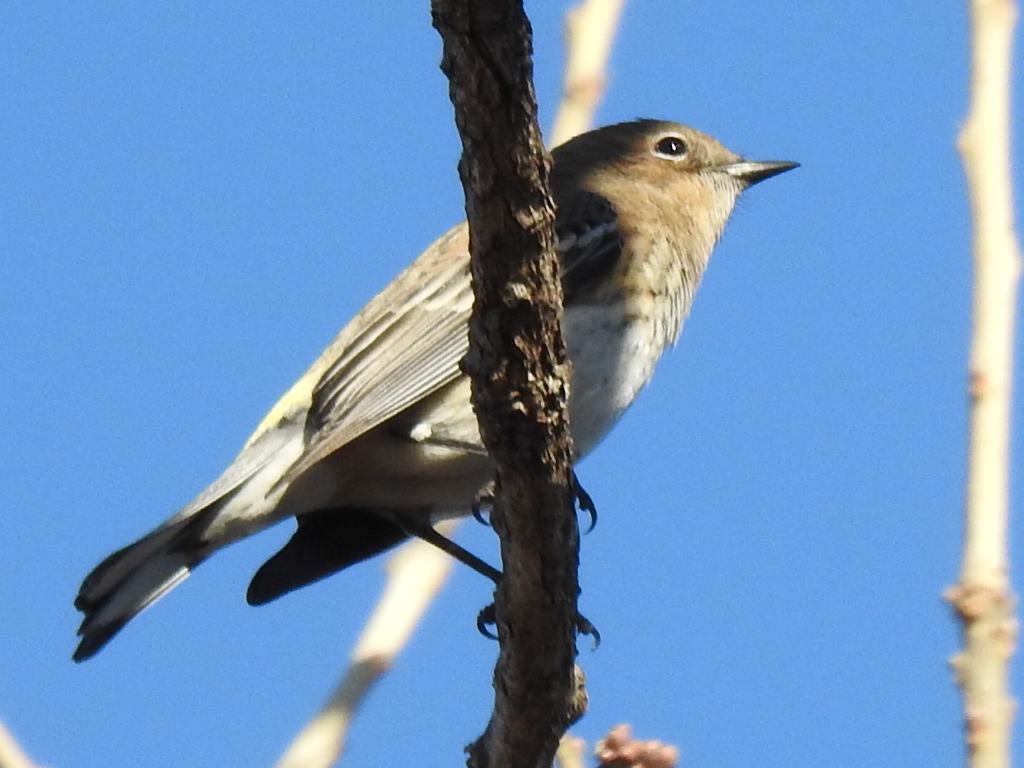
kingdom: Animalia
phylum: Chordata
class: Aves
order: Passeriformes
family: Parulidae
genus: Setophaga
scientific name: Setophaga coronata
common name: Myrtle warbler
